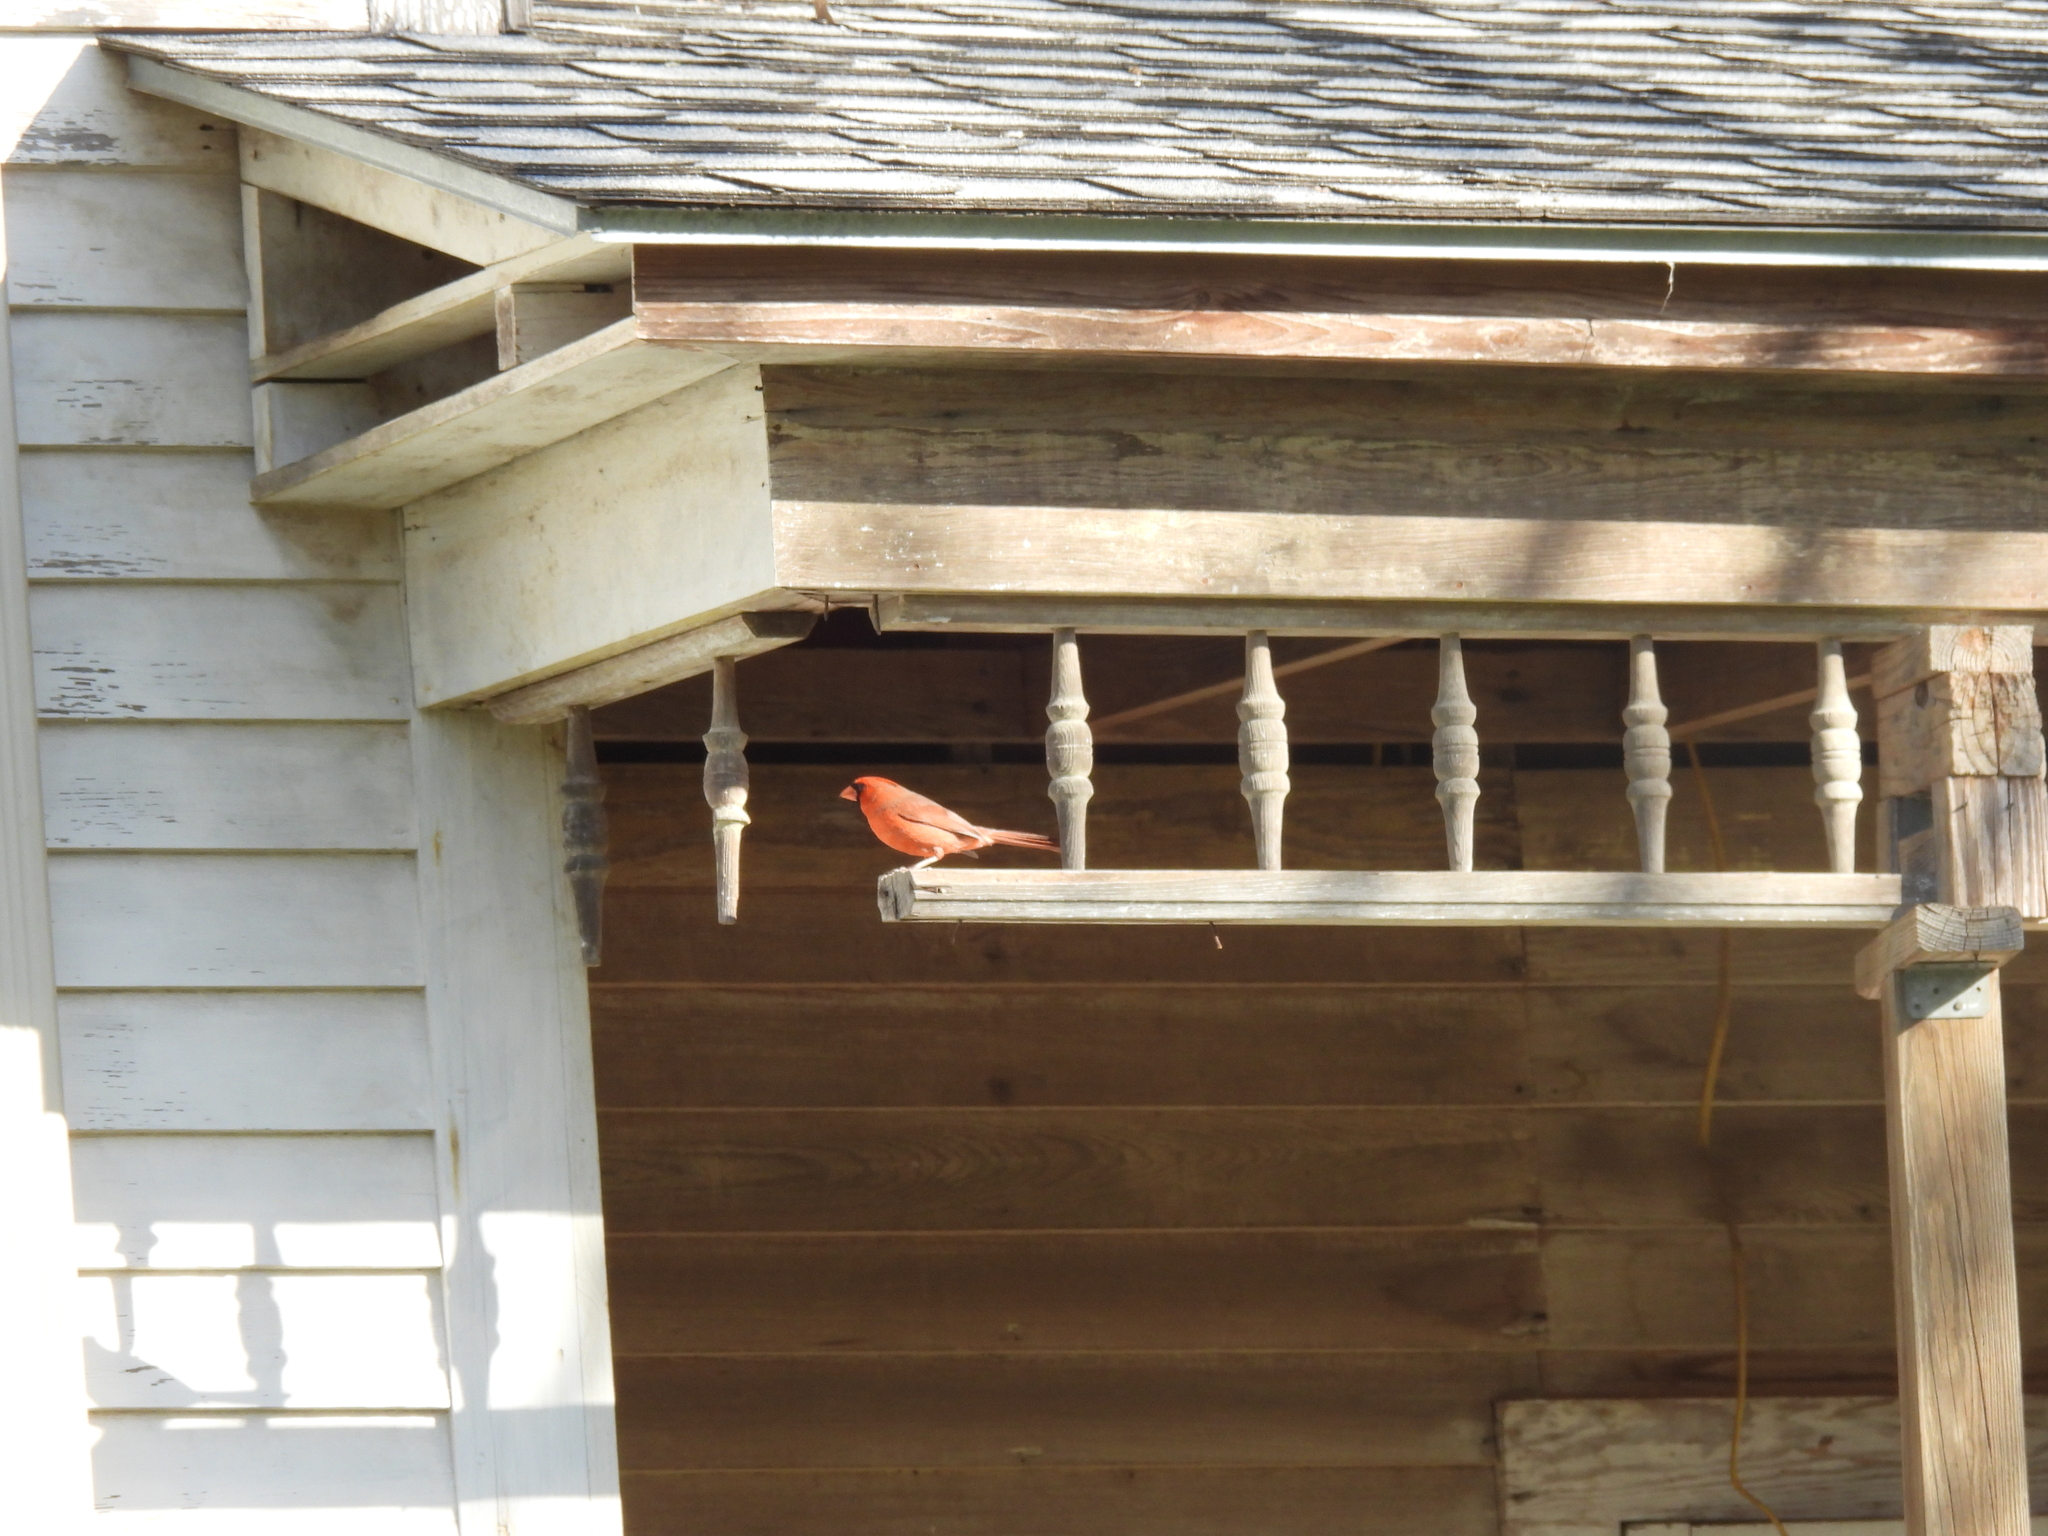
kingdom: Animalia
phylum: Chordata
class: Aves
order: Passeriformes
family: Cardinalidae
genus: Cardinalis
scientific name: Cardinalis cardinalis
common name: Northern cardinal
